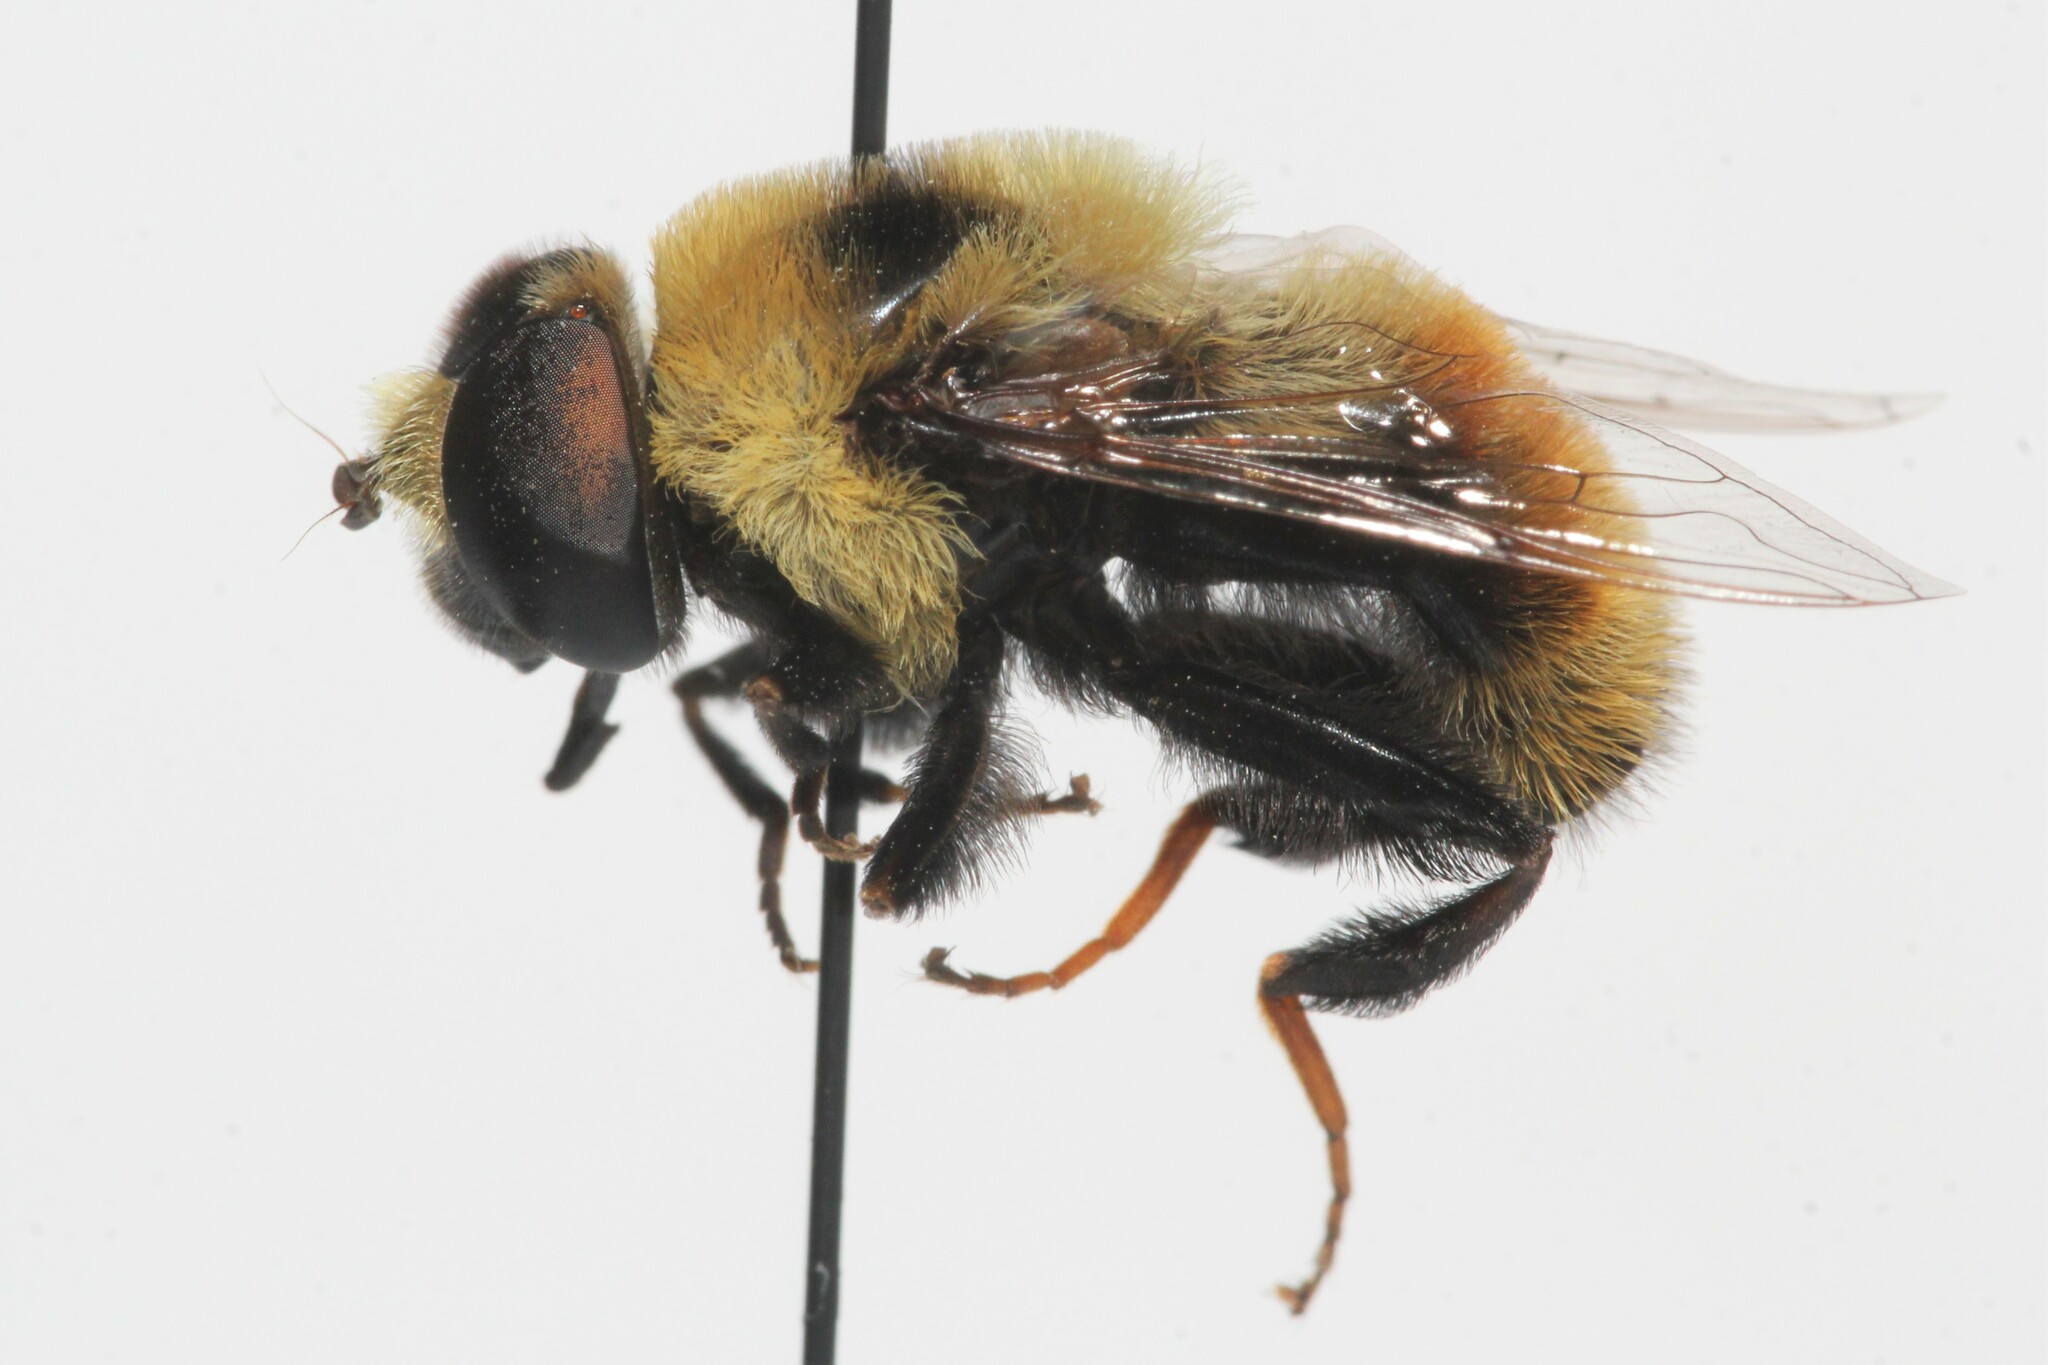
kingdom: Animalia
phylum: Arthropoda
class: Insecta
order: Diptera
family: Syrphidae
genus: Eristalis
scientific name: Eristalis flavipes
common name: Orange-legged drone fly
